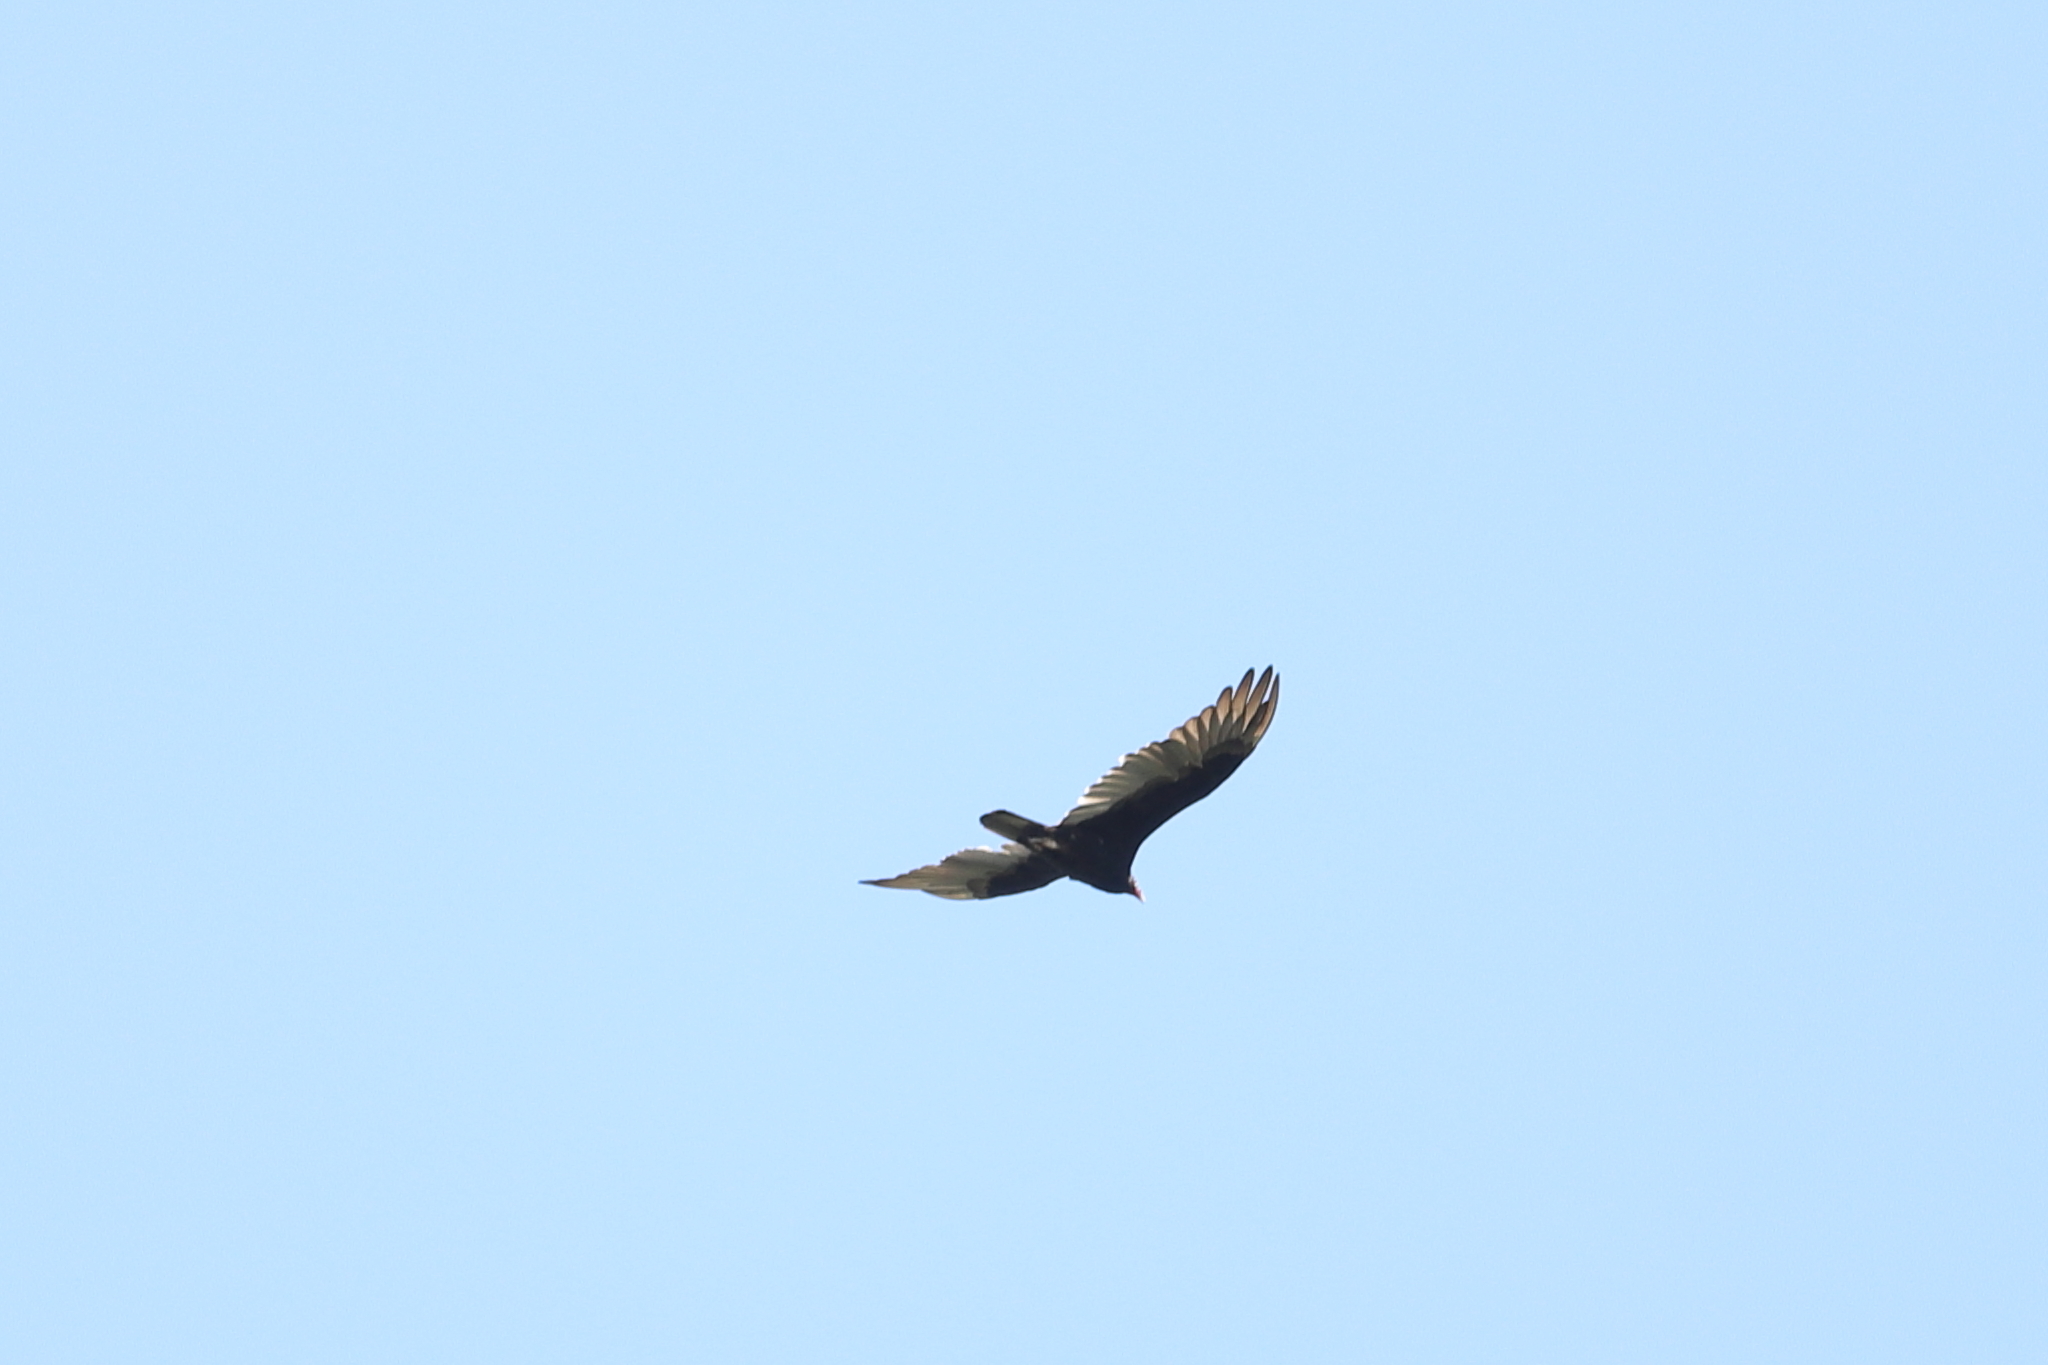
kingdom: Animalia
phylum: Chordata
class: Aves
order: Accipitriformes
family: Cathartidae
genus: Cathartes
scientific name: Cathartes aura
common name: Turkey vulture
